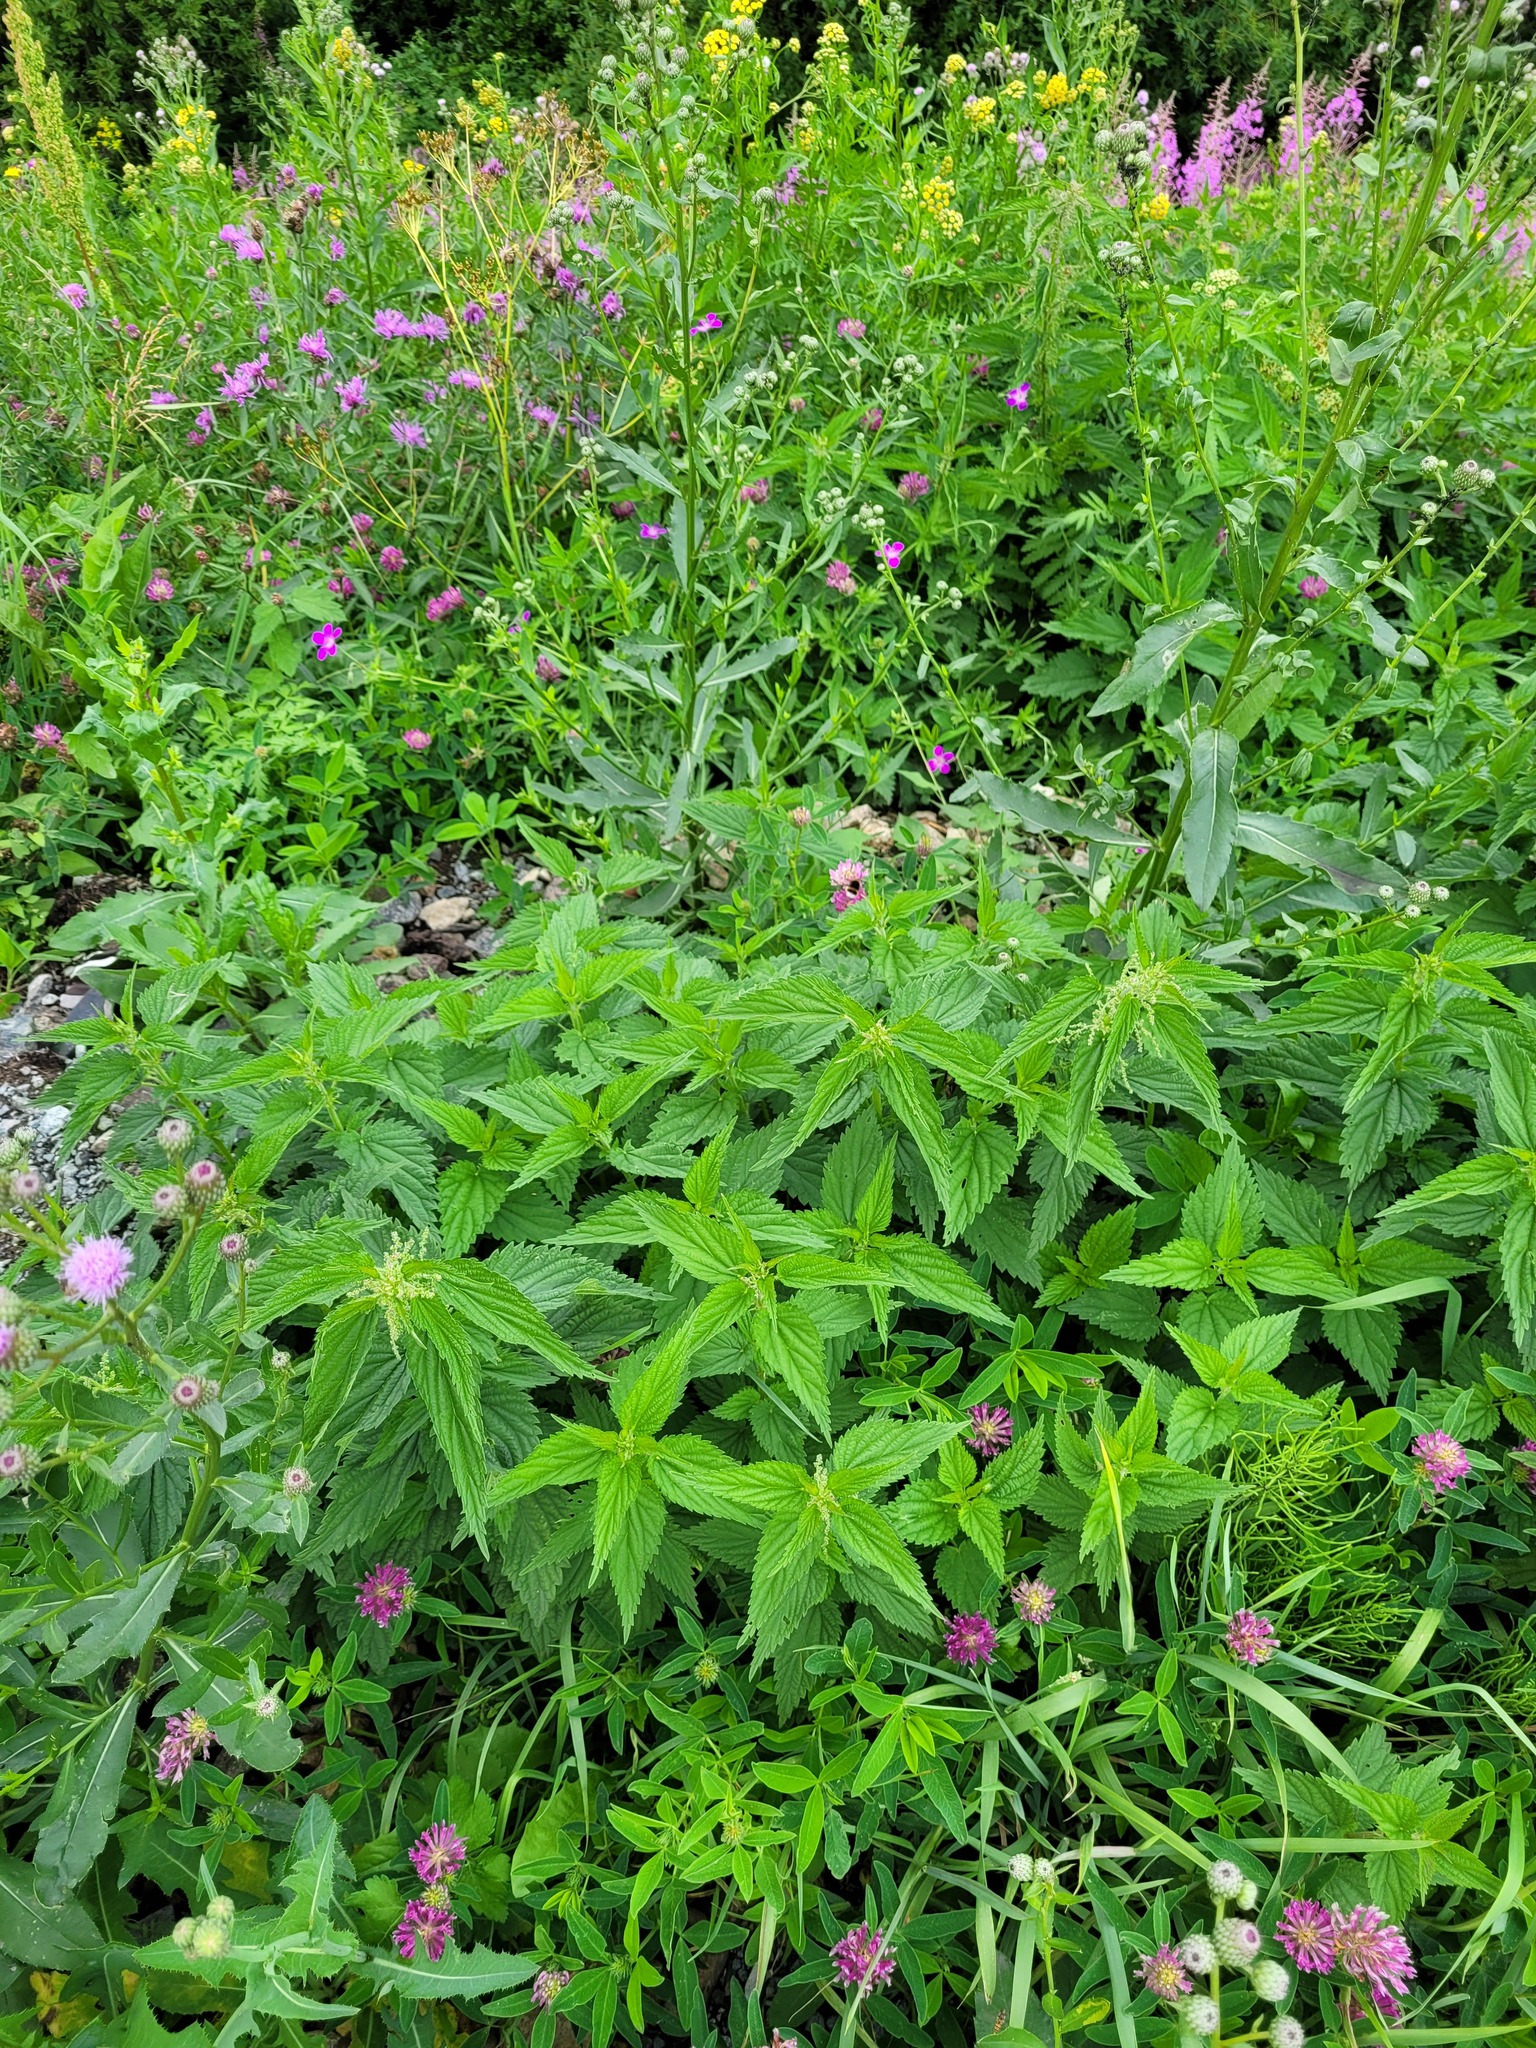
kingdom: Plantae
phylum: Tracheophyta
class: Magnoliopsida
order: Rosales
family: Urticaceae
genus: Urtica
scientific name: Urtica dioica
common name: Common nettle
